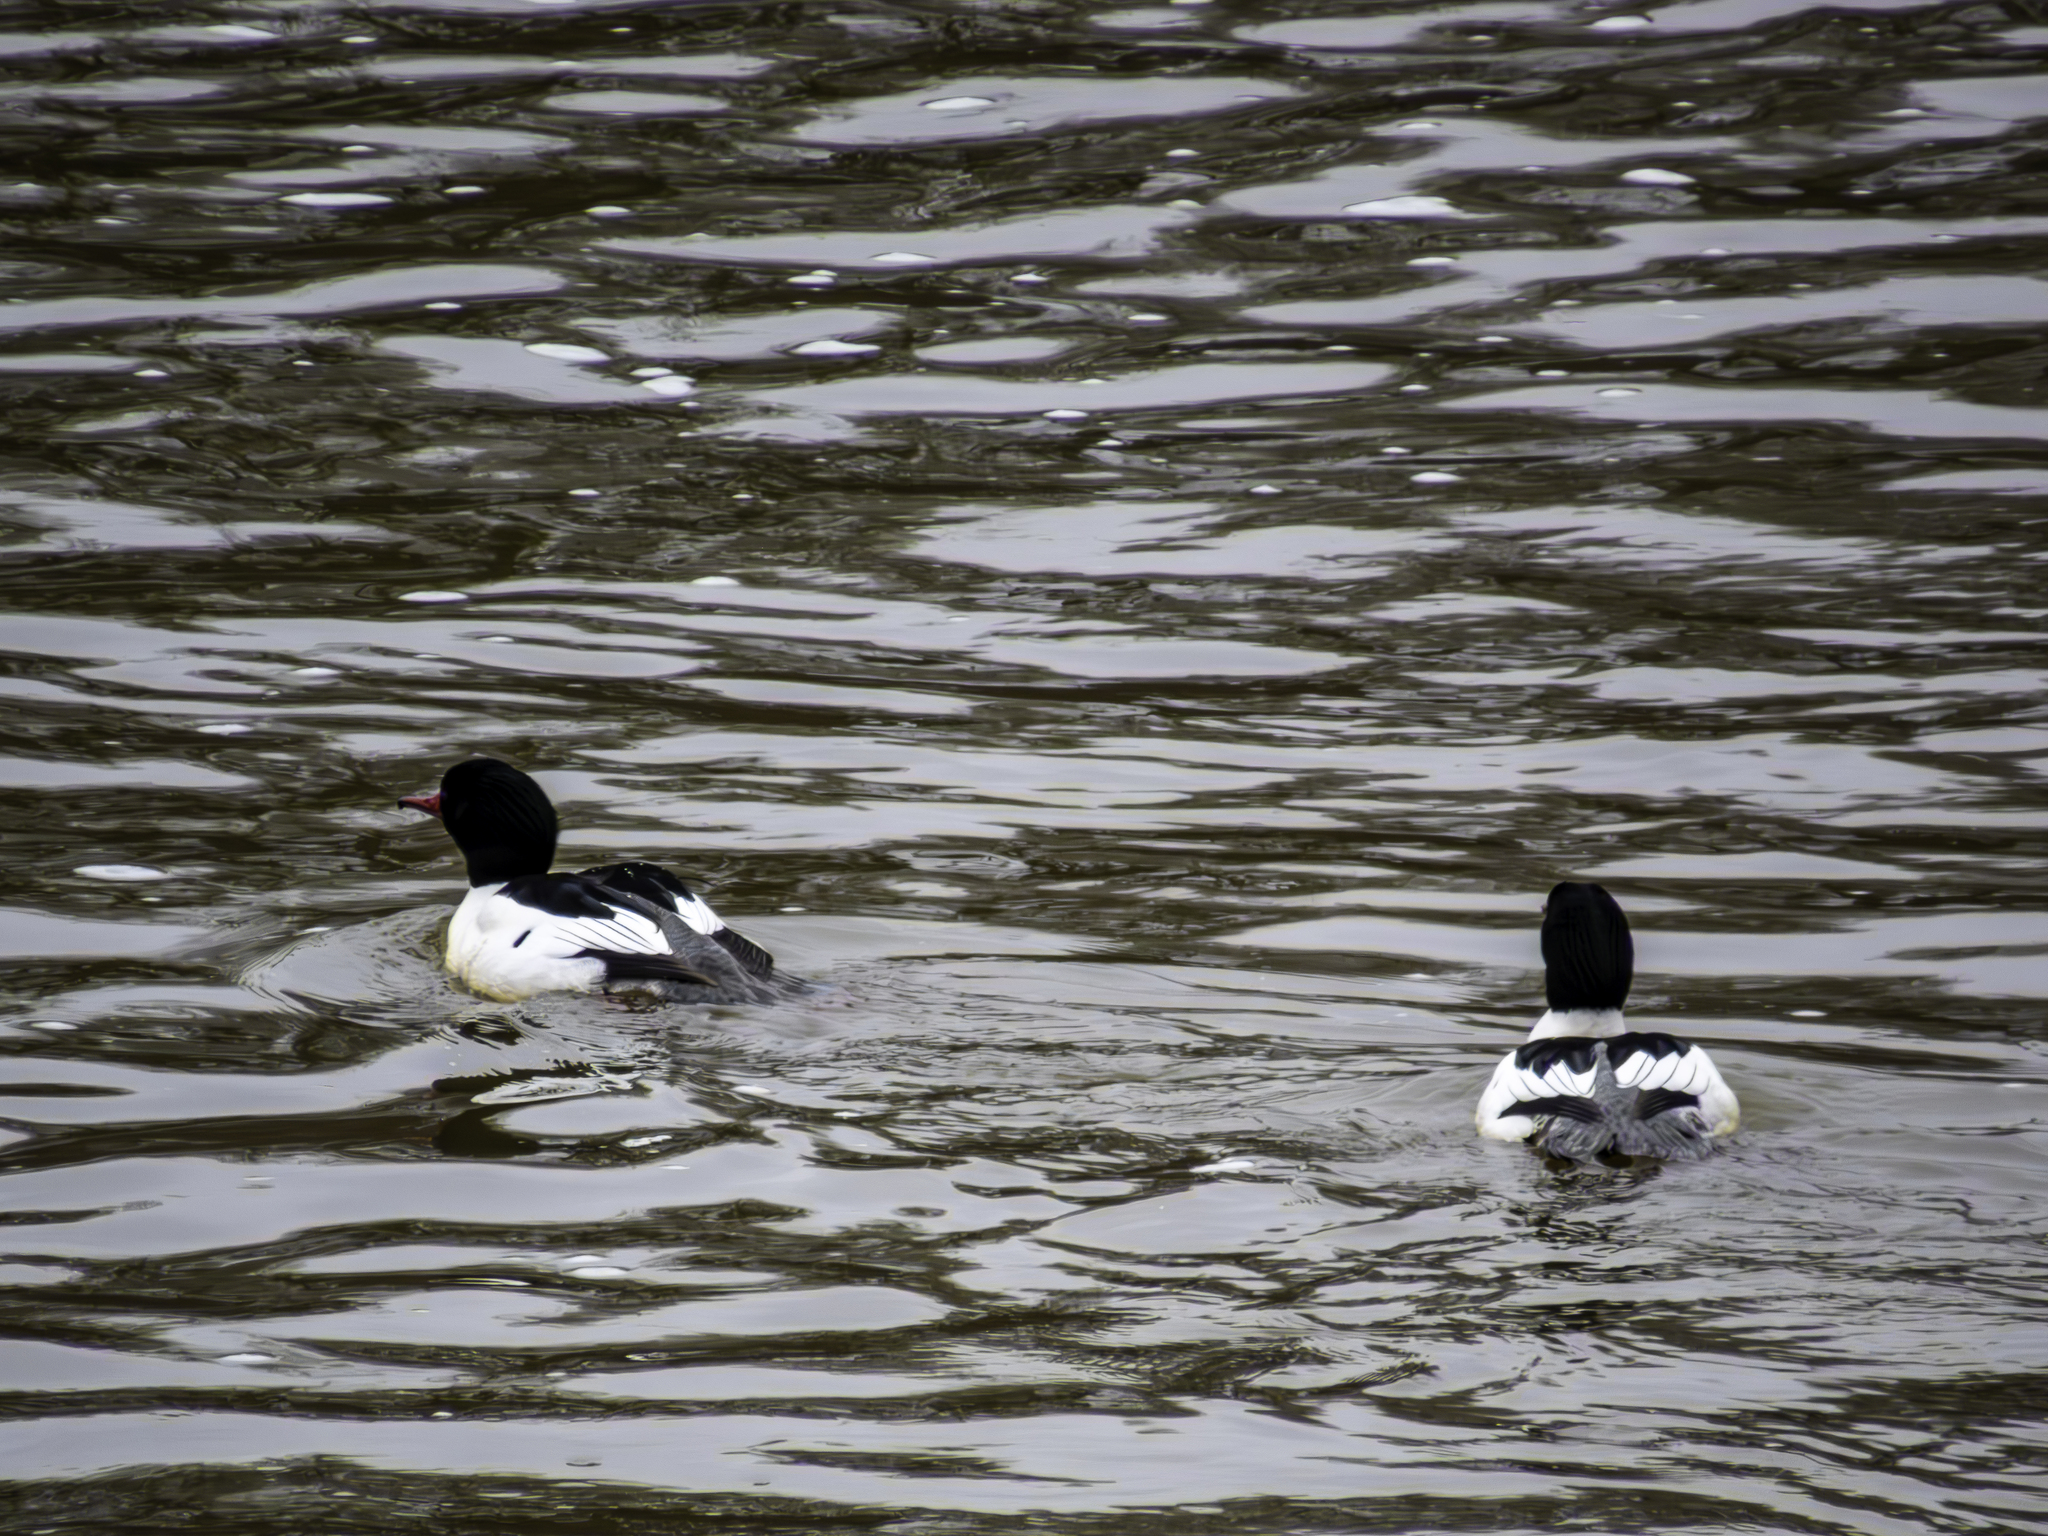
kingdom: Animalia
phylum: Chordata
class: Aves
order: Anseriformes
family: Anatidae
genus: Mergus
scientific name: Mergus merganser
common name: Common merganser
